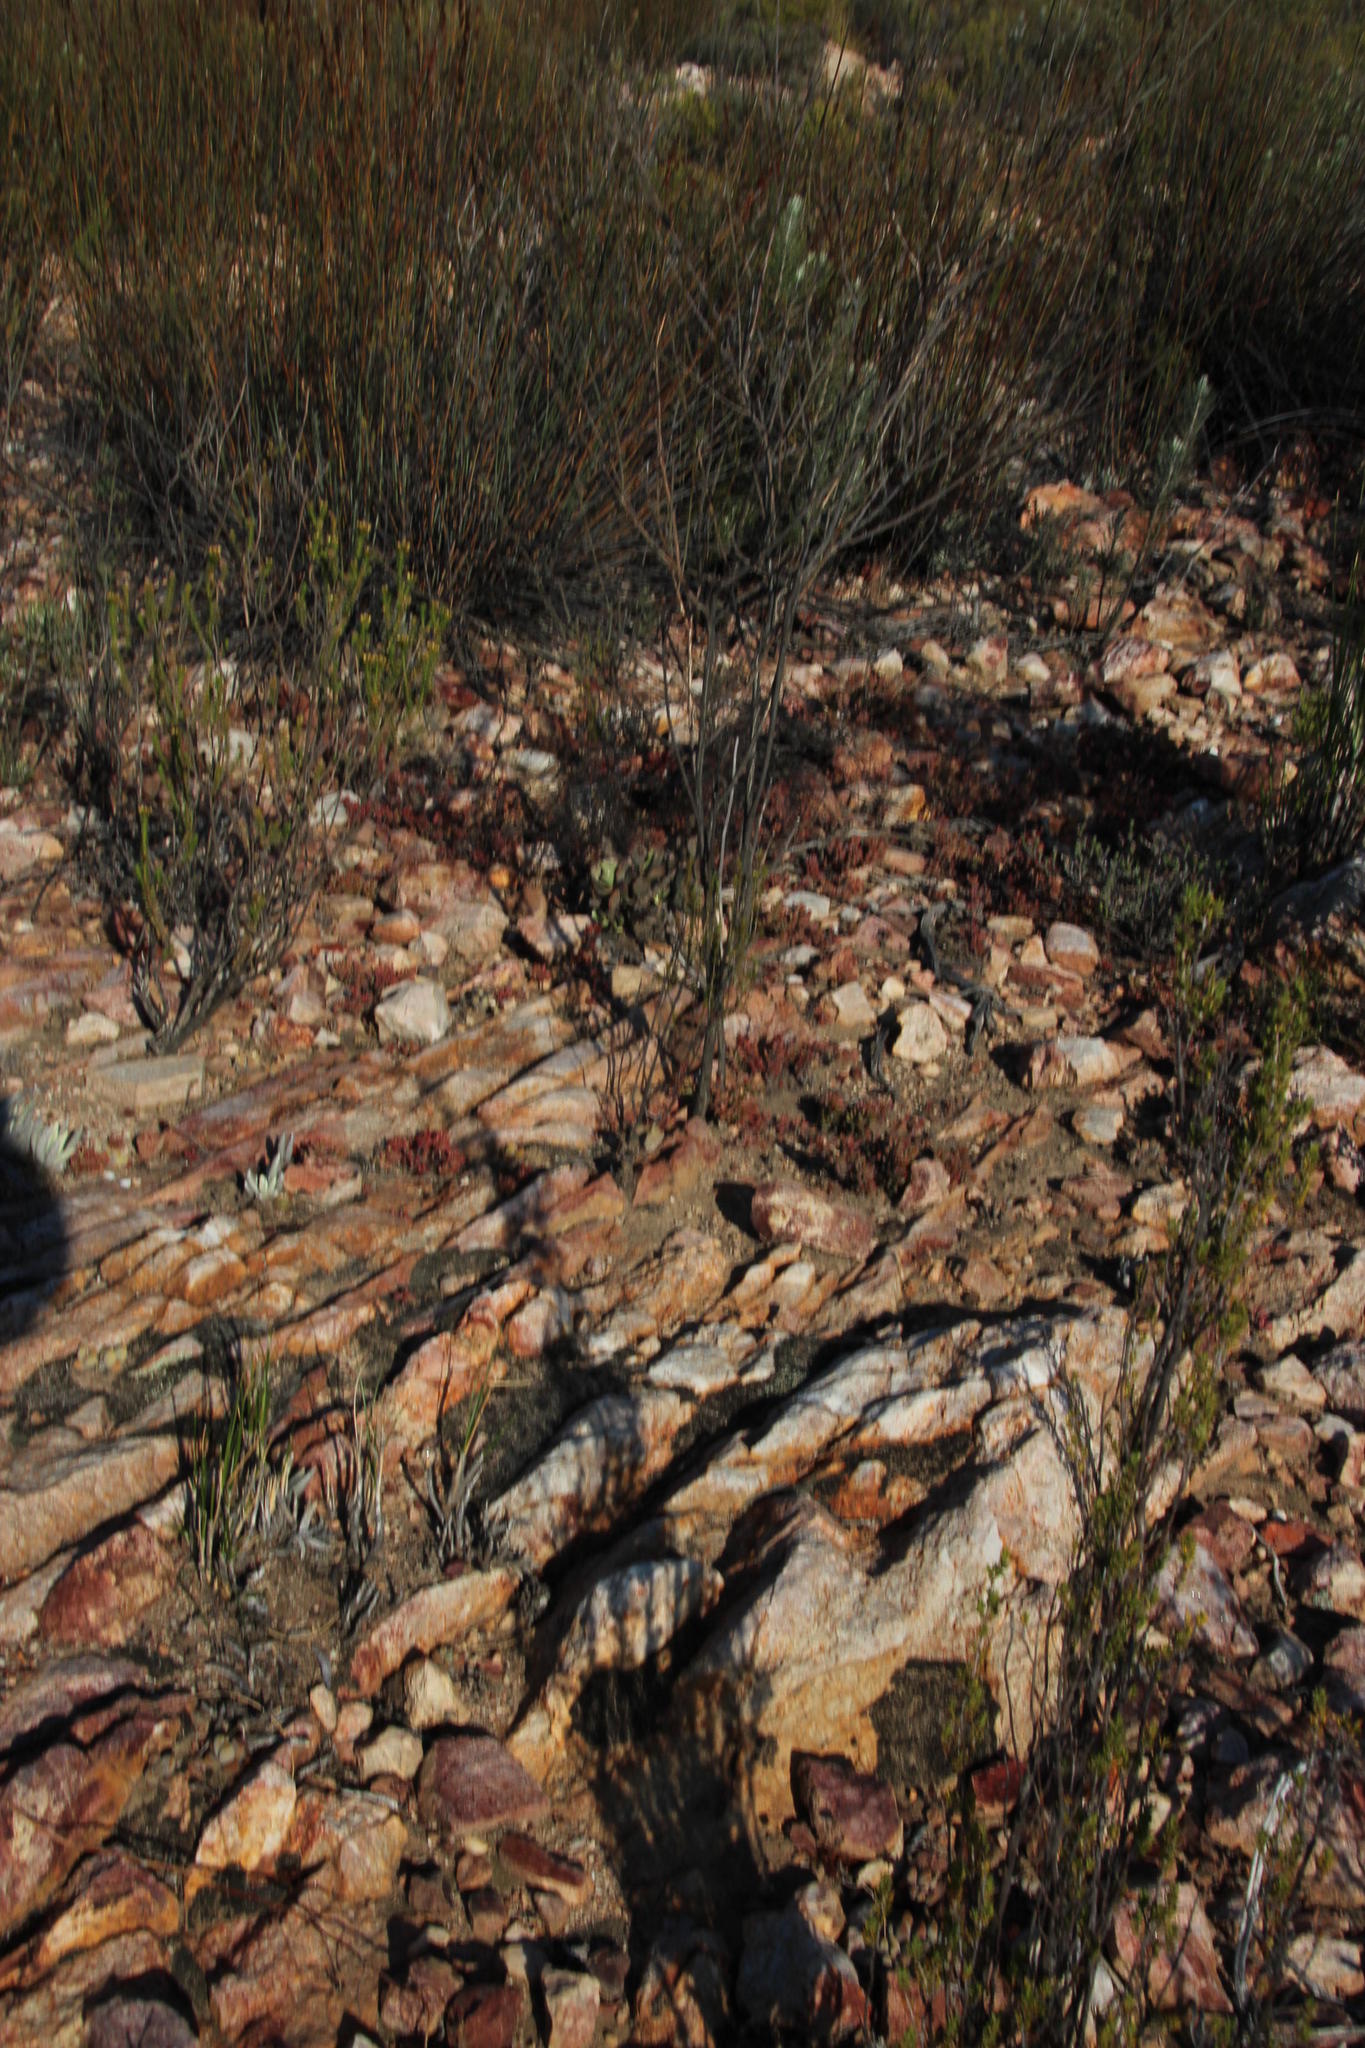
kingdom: Plantae
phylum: Tracheophyta
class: Magnoliopsida
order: Santalales
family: Thesiaceae
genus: Thesium
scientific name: Thesium spicatum
